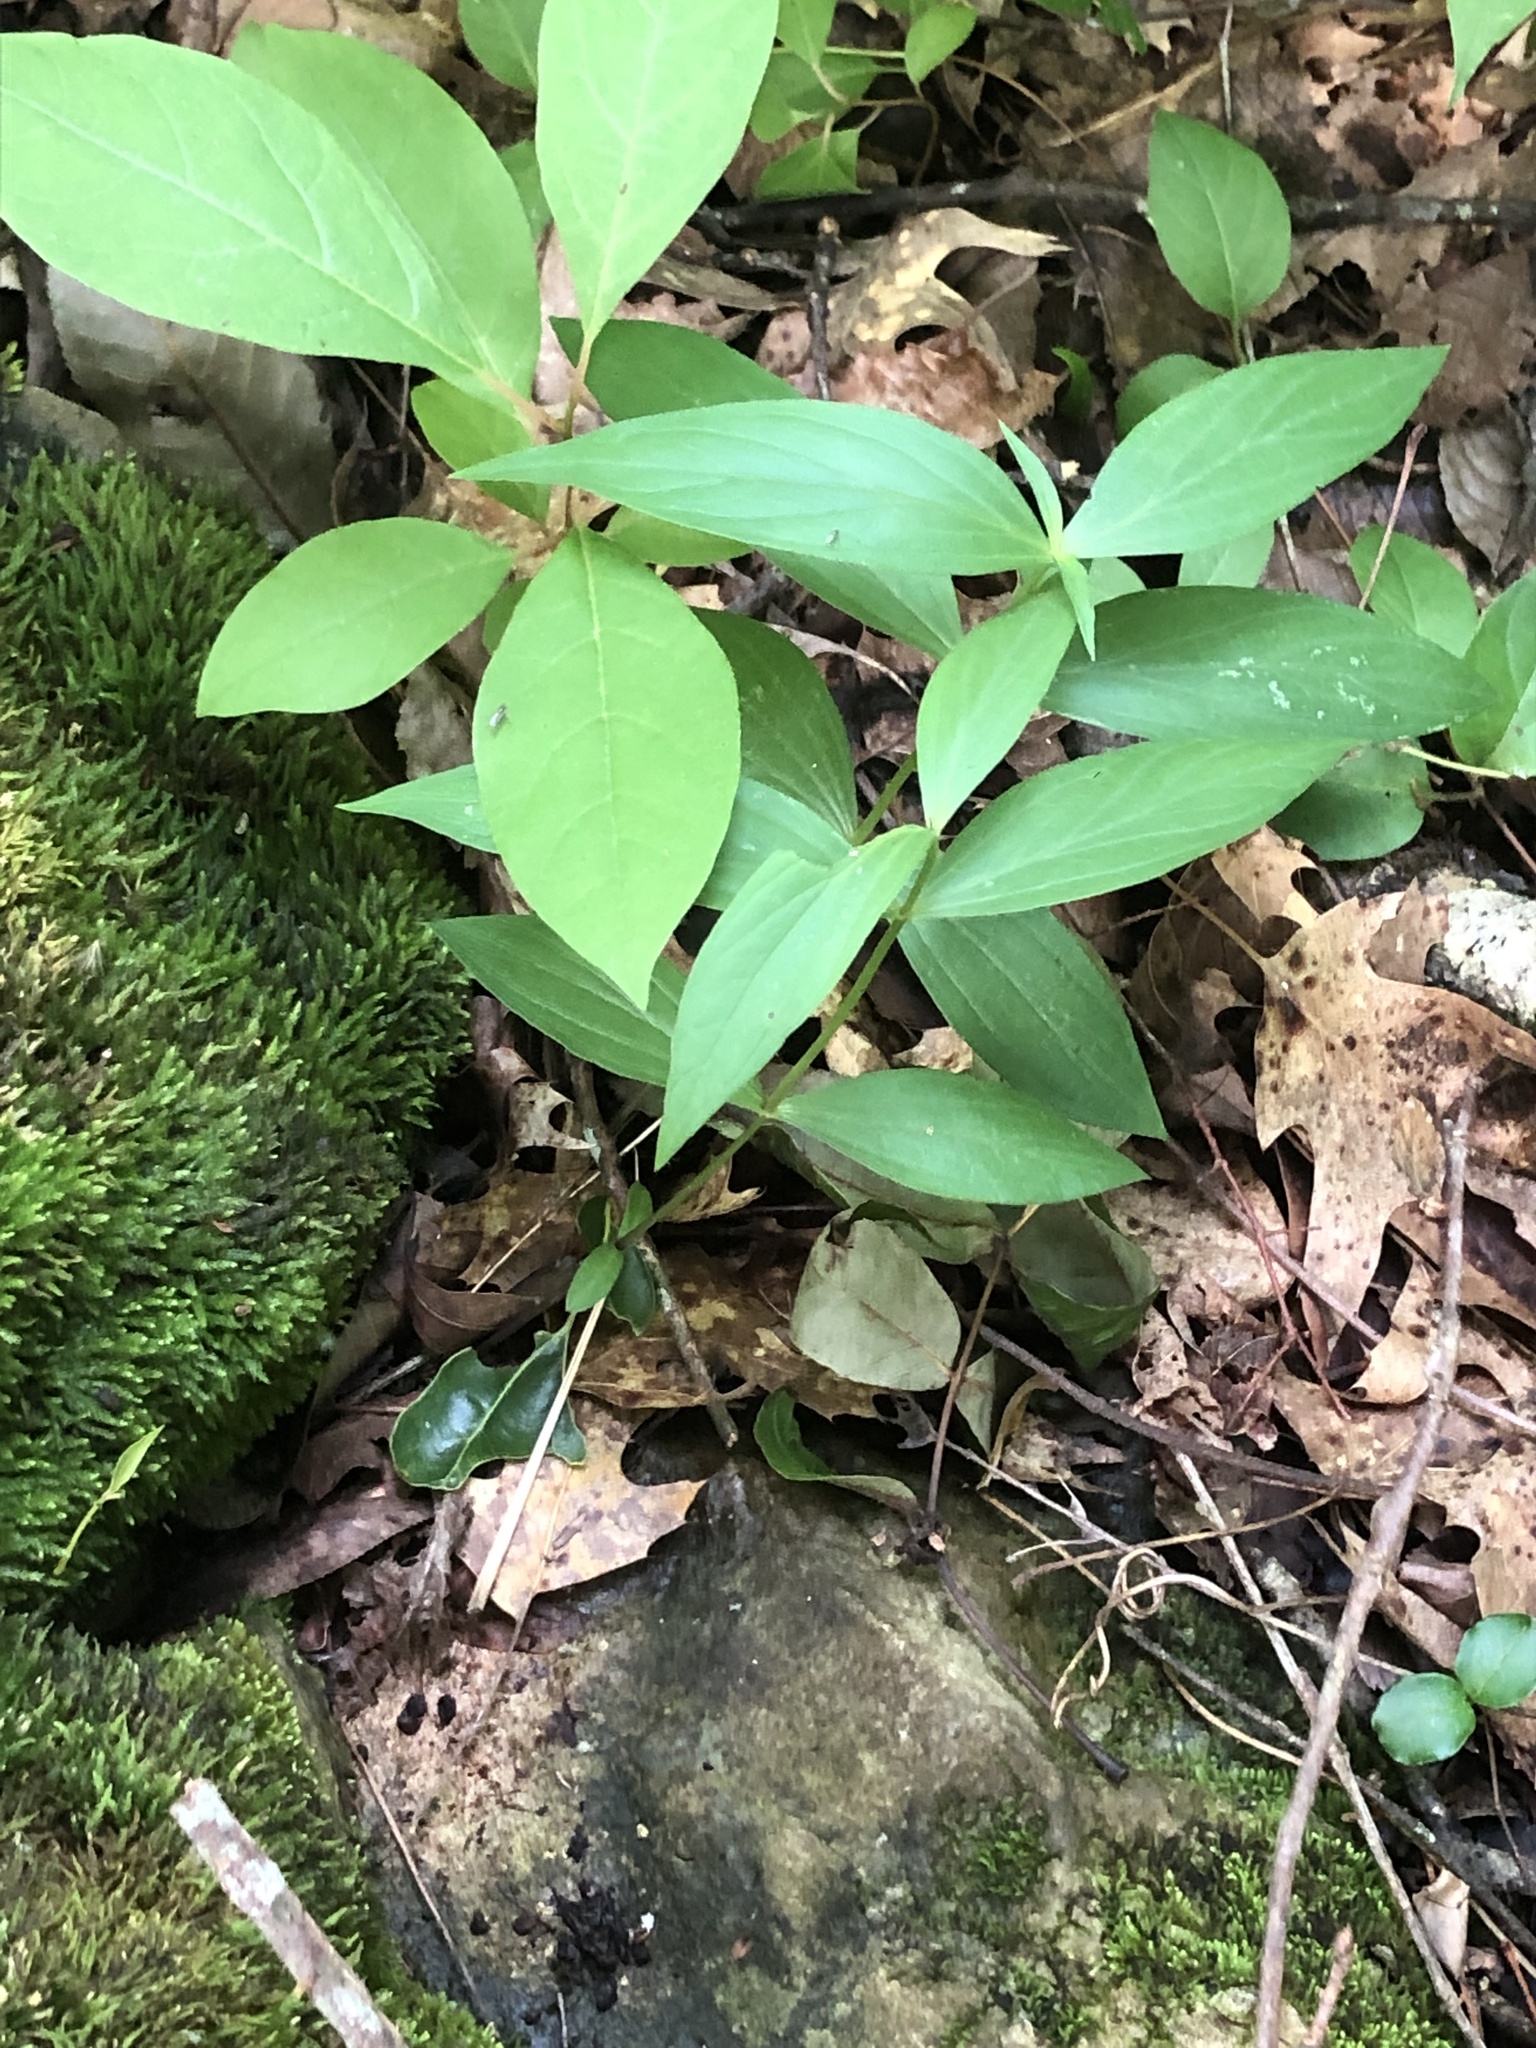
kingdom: Plantae
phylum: Tracheophyta
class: Magnoliopsida
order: Gentianales
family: Loganiaceae
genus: Spigelia
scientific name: Spigelia marilandica
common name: Indian-pink
